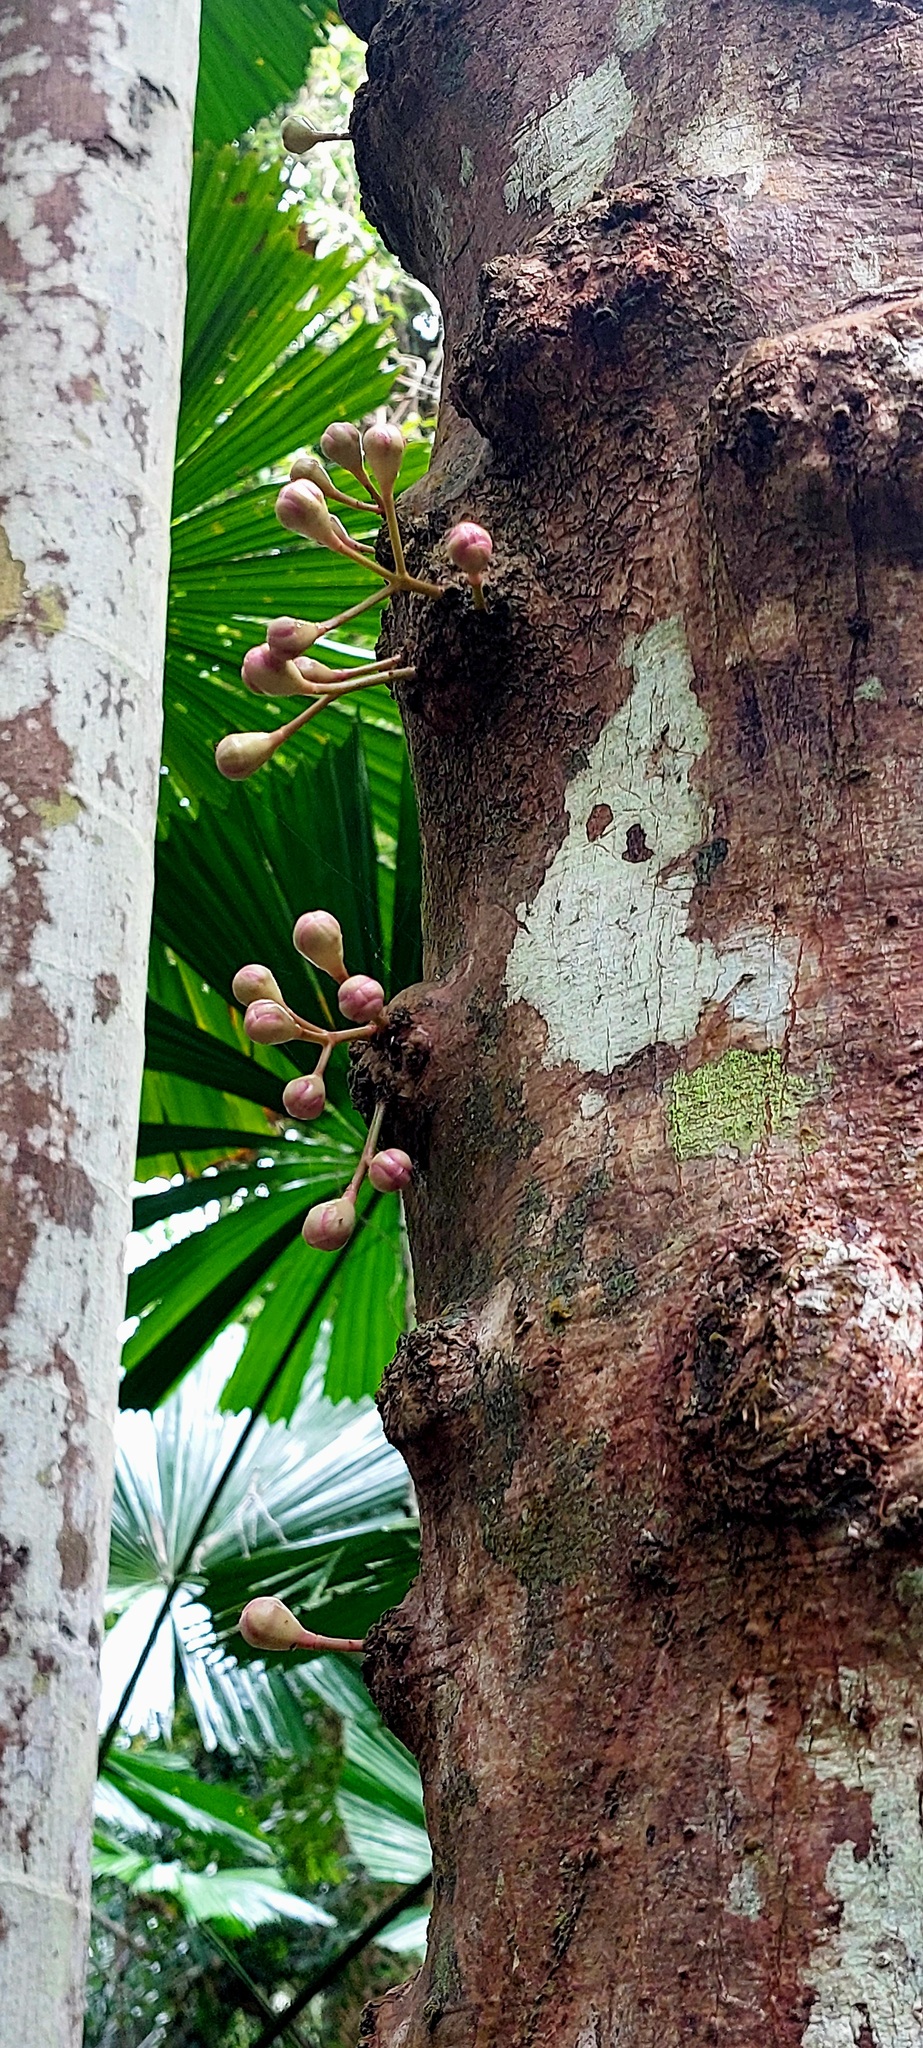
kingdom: Plantae
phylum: Tracheophyta
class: Magnoliopsida
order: Myrtales
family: Myrtaceae
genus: Syzygium
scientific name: Syzygium cormiflorum
